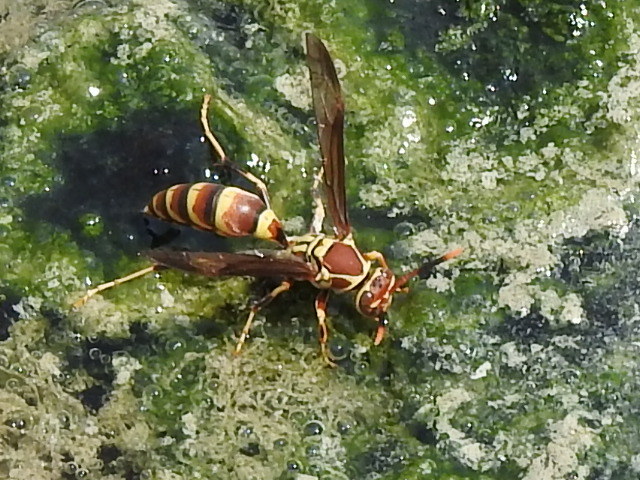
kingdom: Animalia
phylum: Arthropoda
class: Insecta
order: Hymenoptera
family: Eumenidae
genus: Polistes
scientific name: Polistes exclamans
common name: Paper wasp
